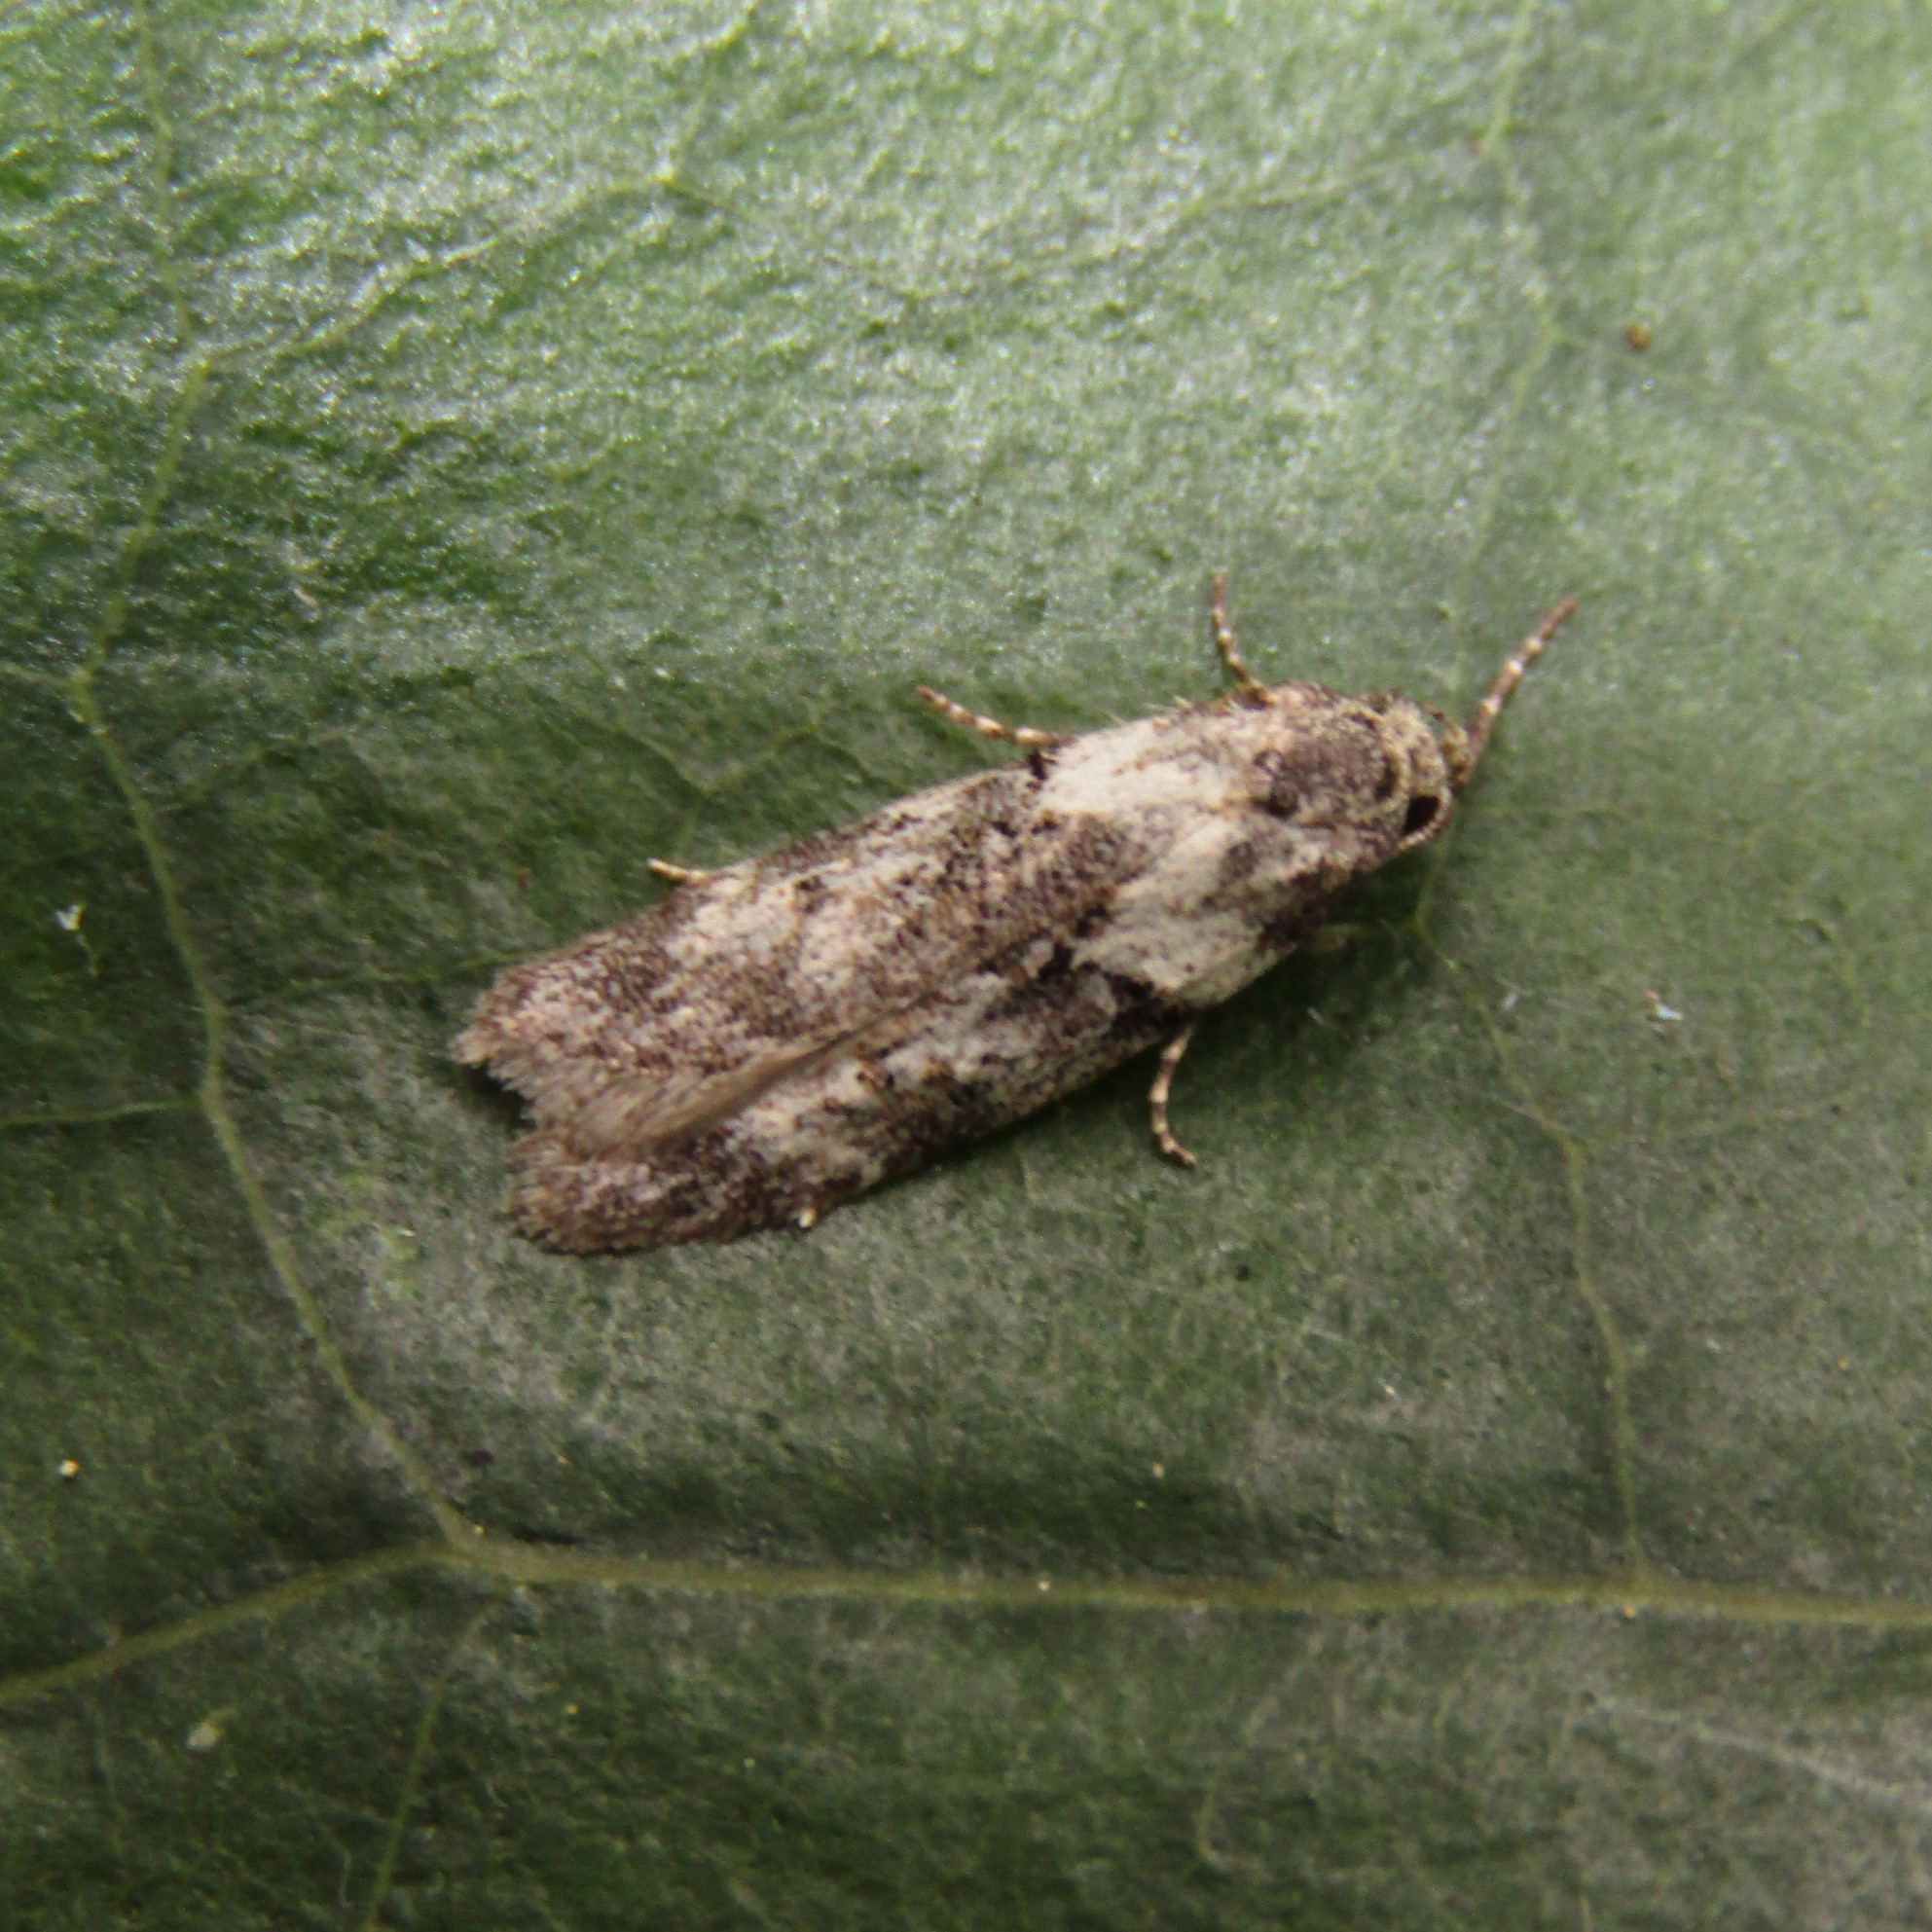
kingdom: Animalia
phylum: Arthropoda
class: Insecta
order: Lepidoptera
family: Oecophoridae
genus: Izatha
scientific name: Izatha convulsella
